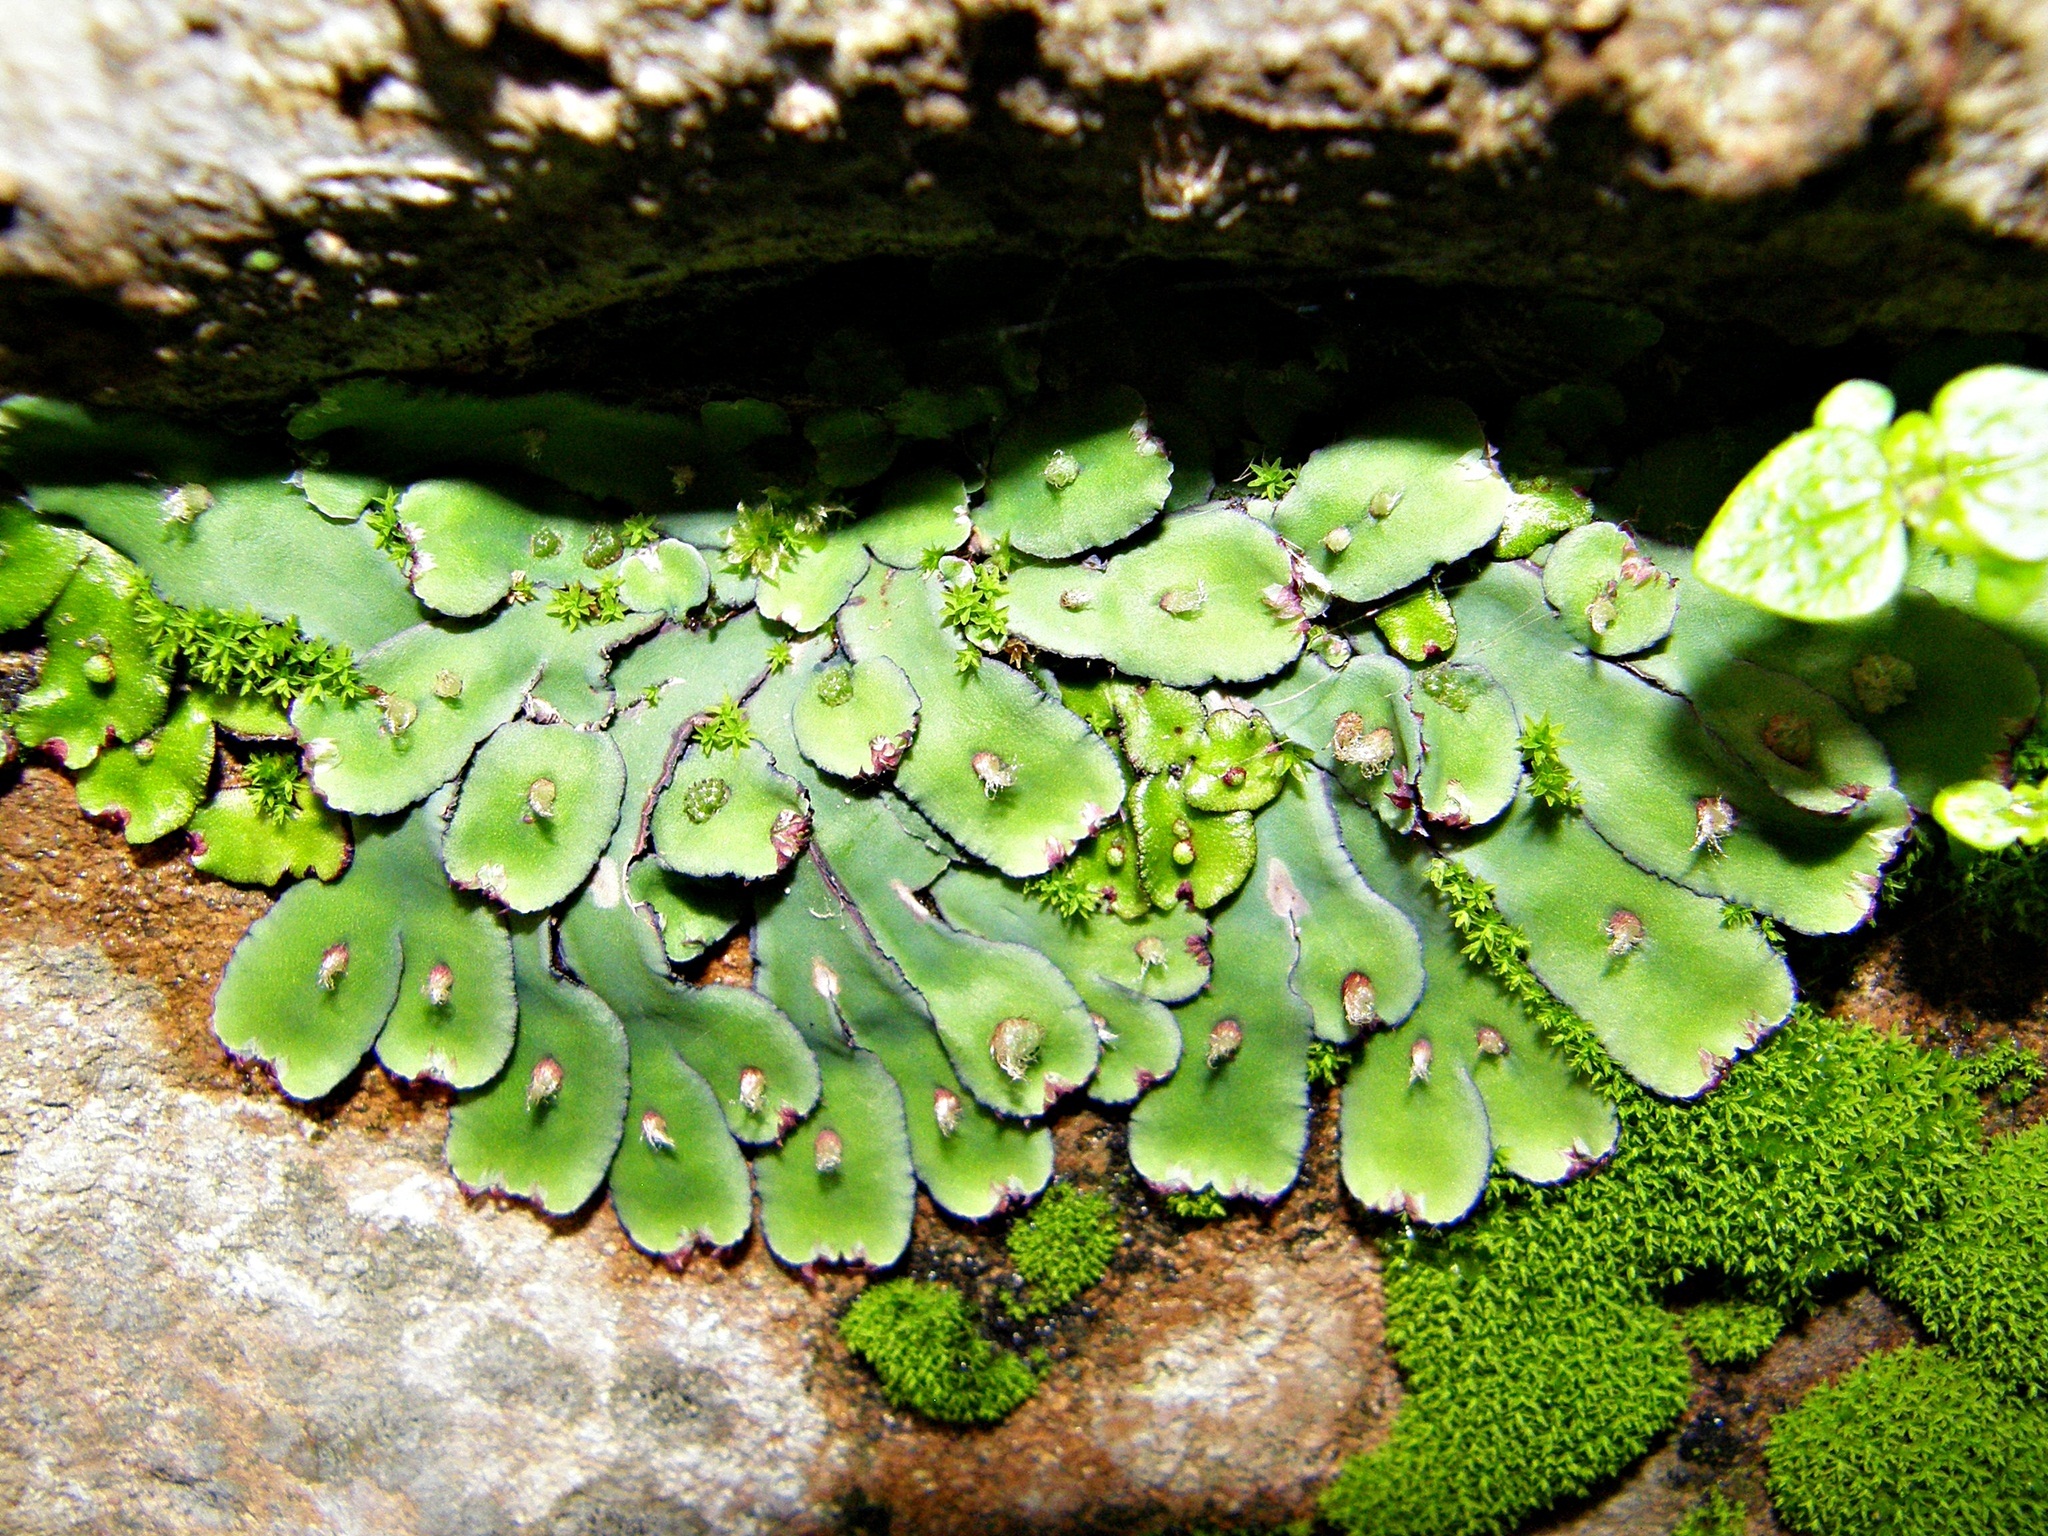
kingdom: Plantae
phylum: Marchantiophyta
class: Marchantiopsida
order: Marchantiales
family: Aytoniaceae
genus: Plagiochasma
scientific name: Plagiochasma rupestre
